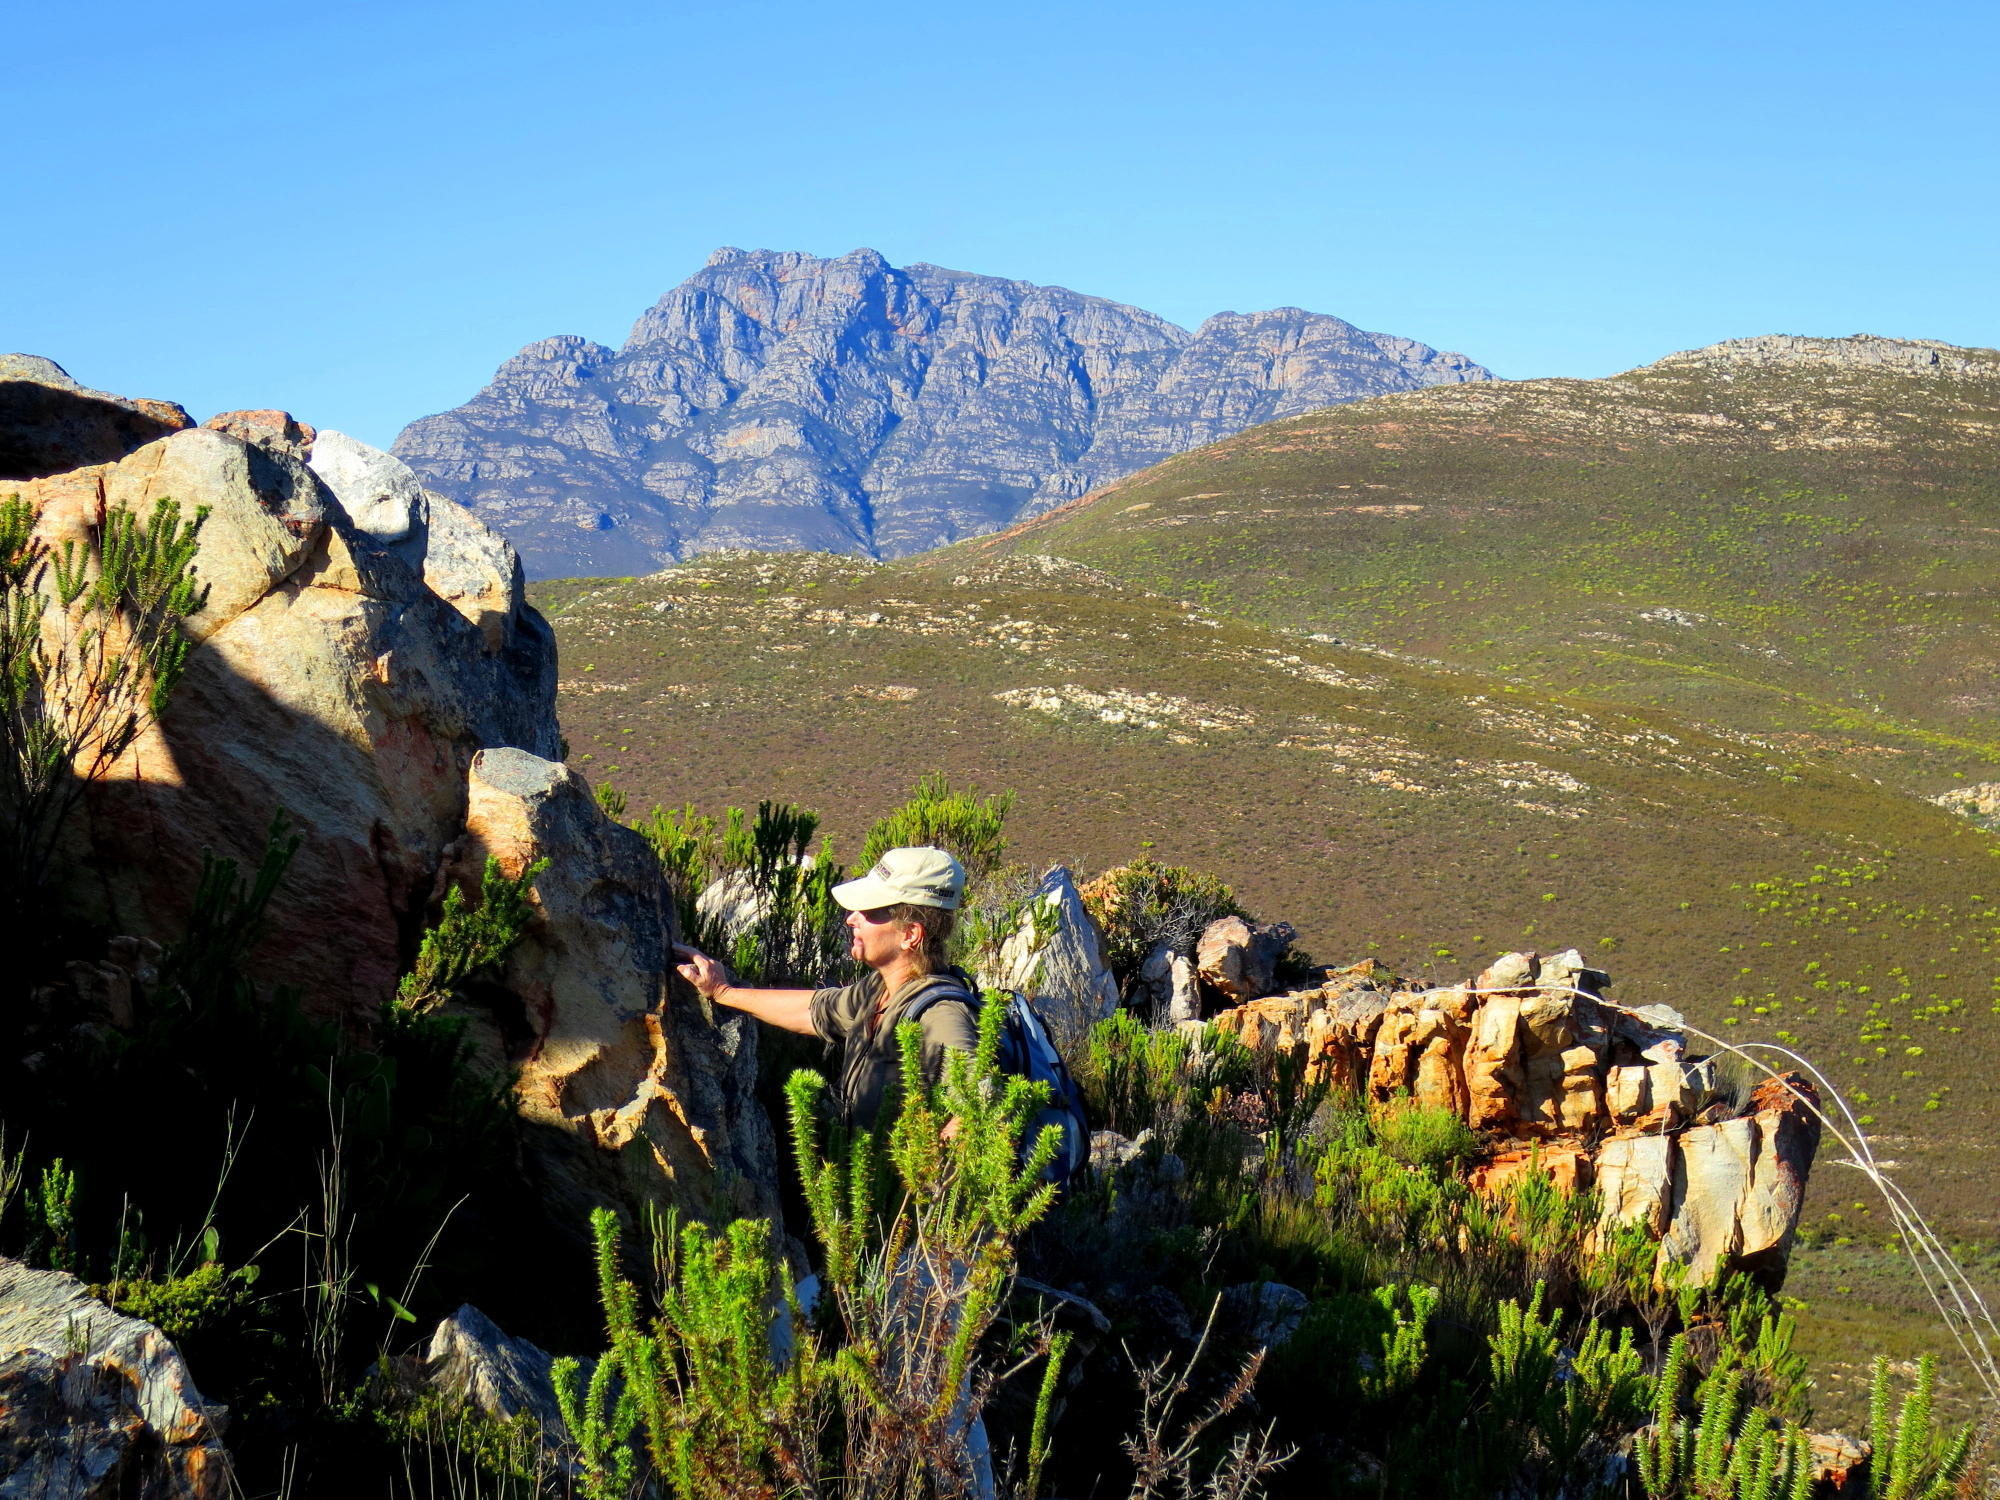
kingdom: Plantae
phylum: Tracheophyta
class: Magnoliopsida
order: Asterales
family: Asteraceae
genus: Metalasia
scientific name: Metalasia acuta
